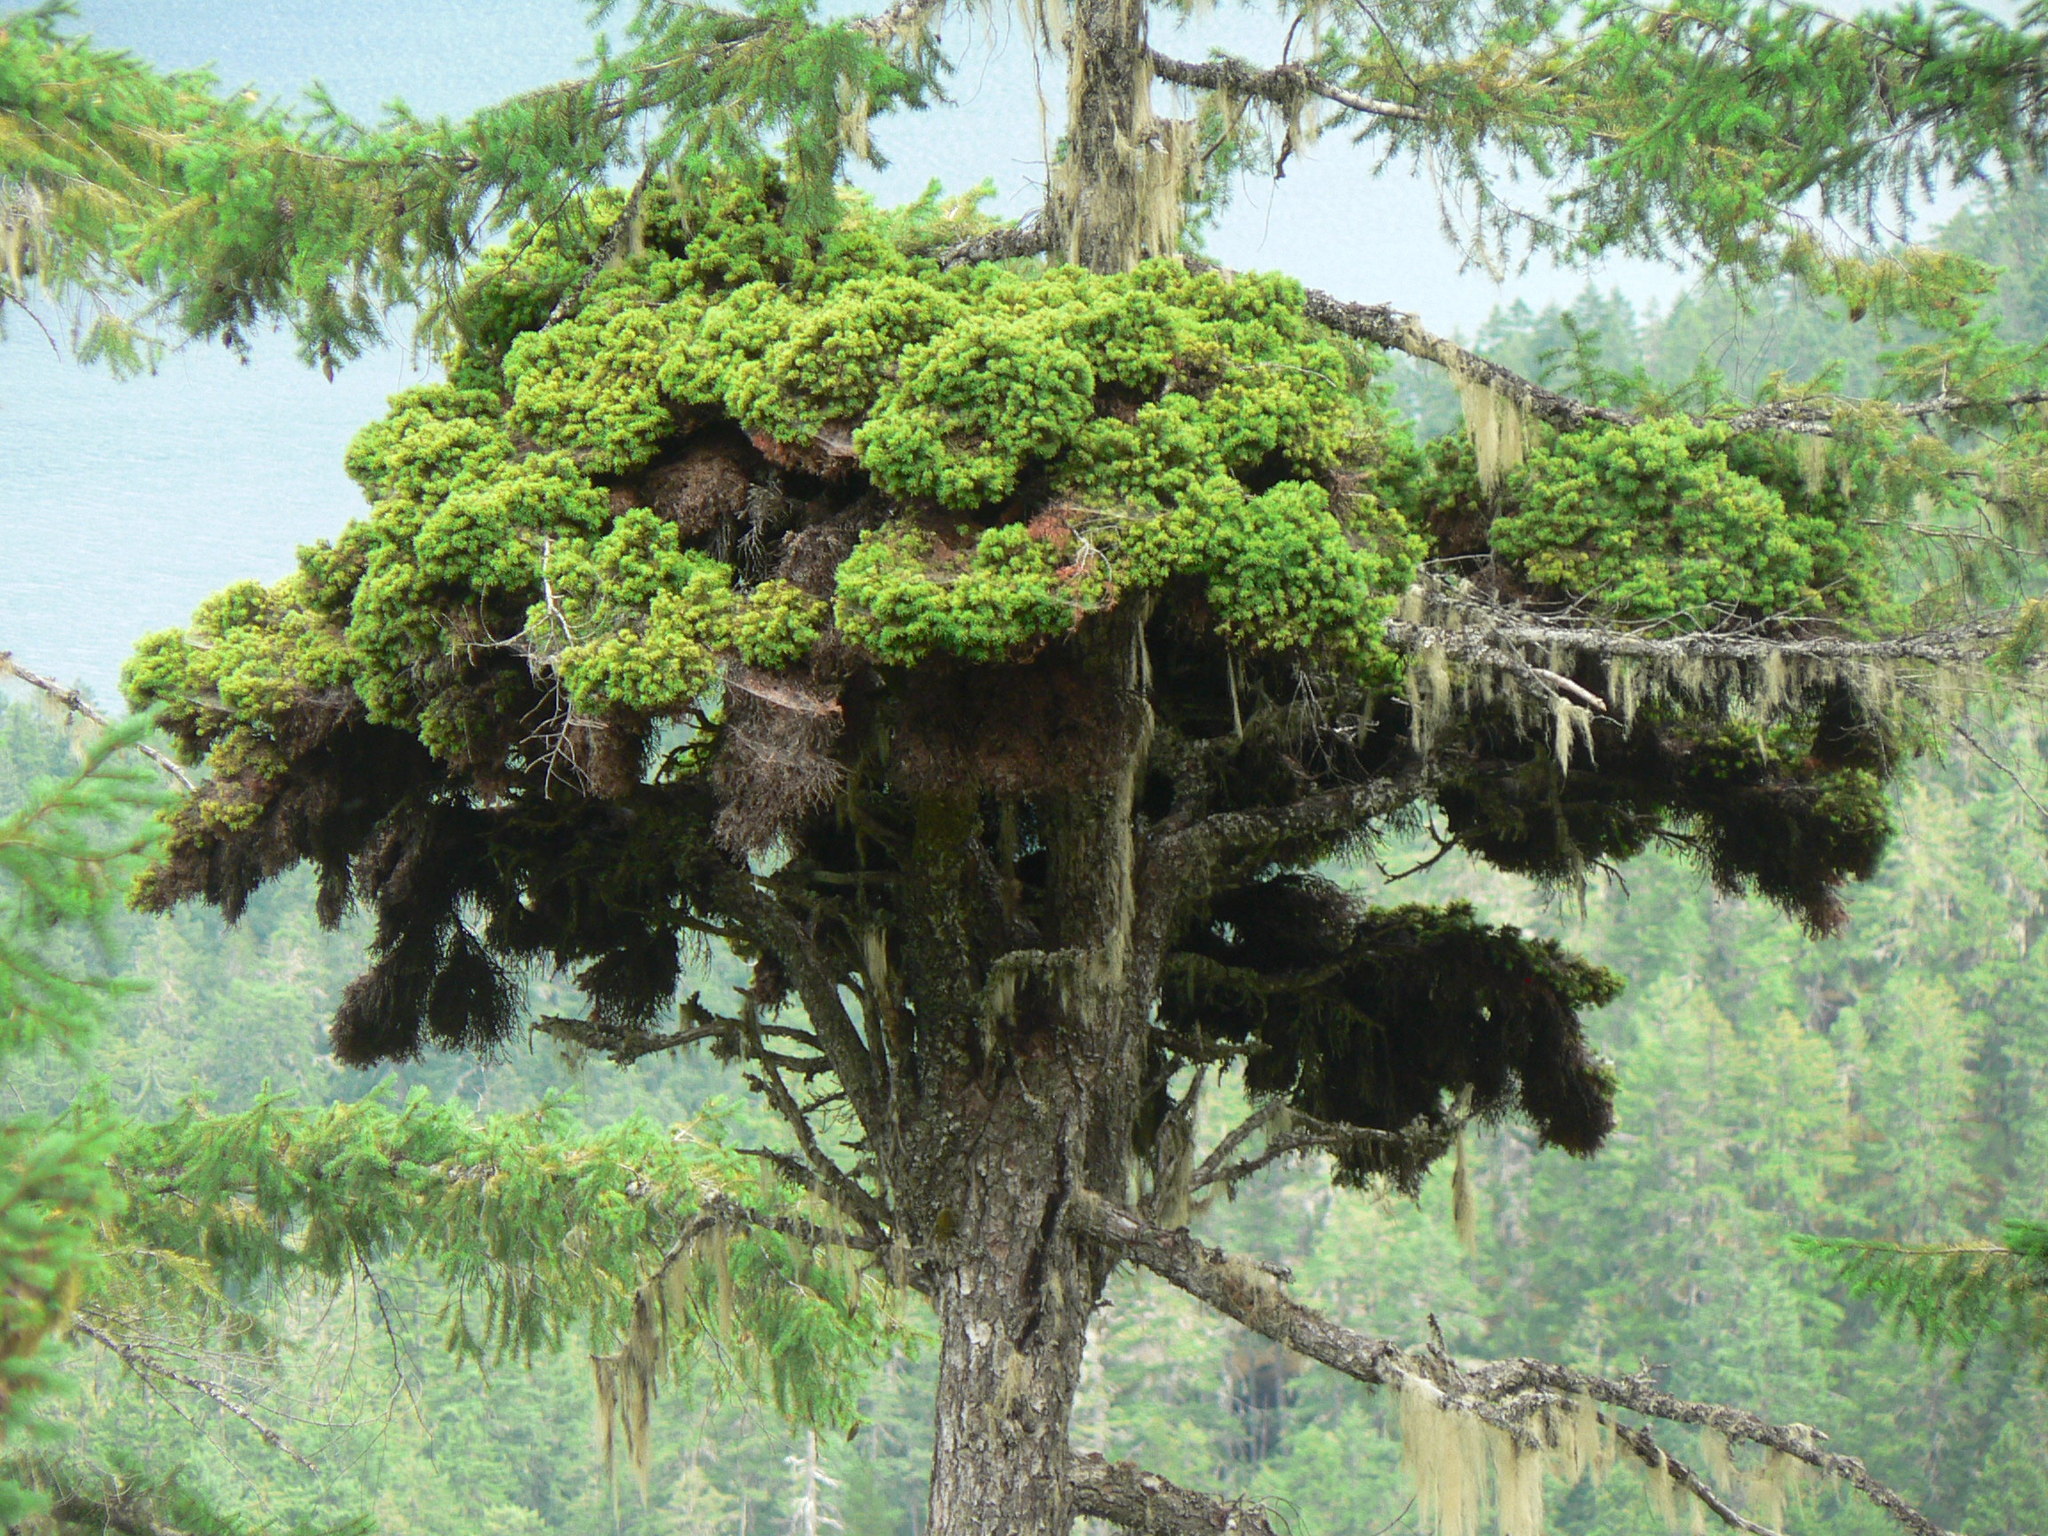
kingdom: Plantae
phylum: Tracheophyta
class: Magnoliopsida
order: Santalales
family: Viscaceae
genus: Arceuthobium
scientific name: Arceuthobium douglasii
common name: Douglas' dwarf mistletoe
